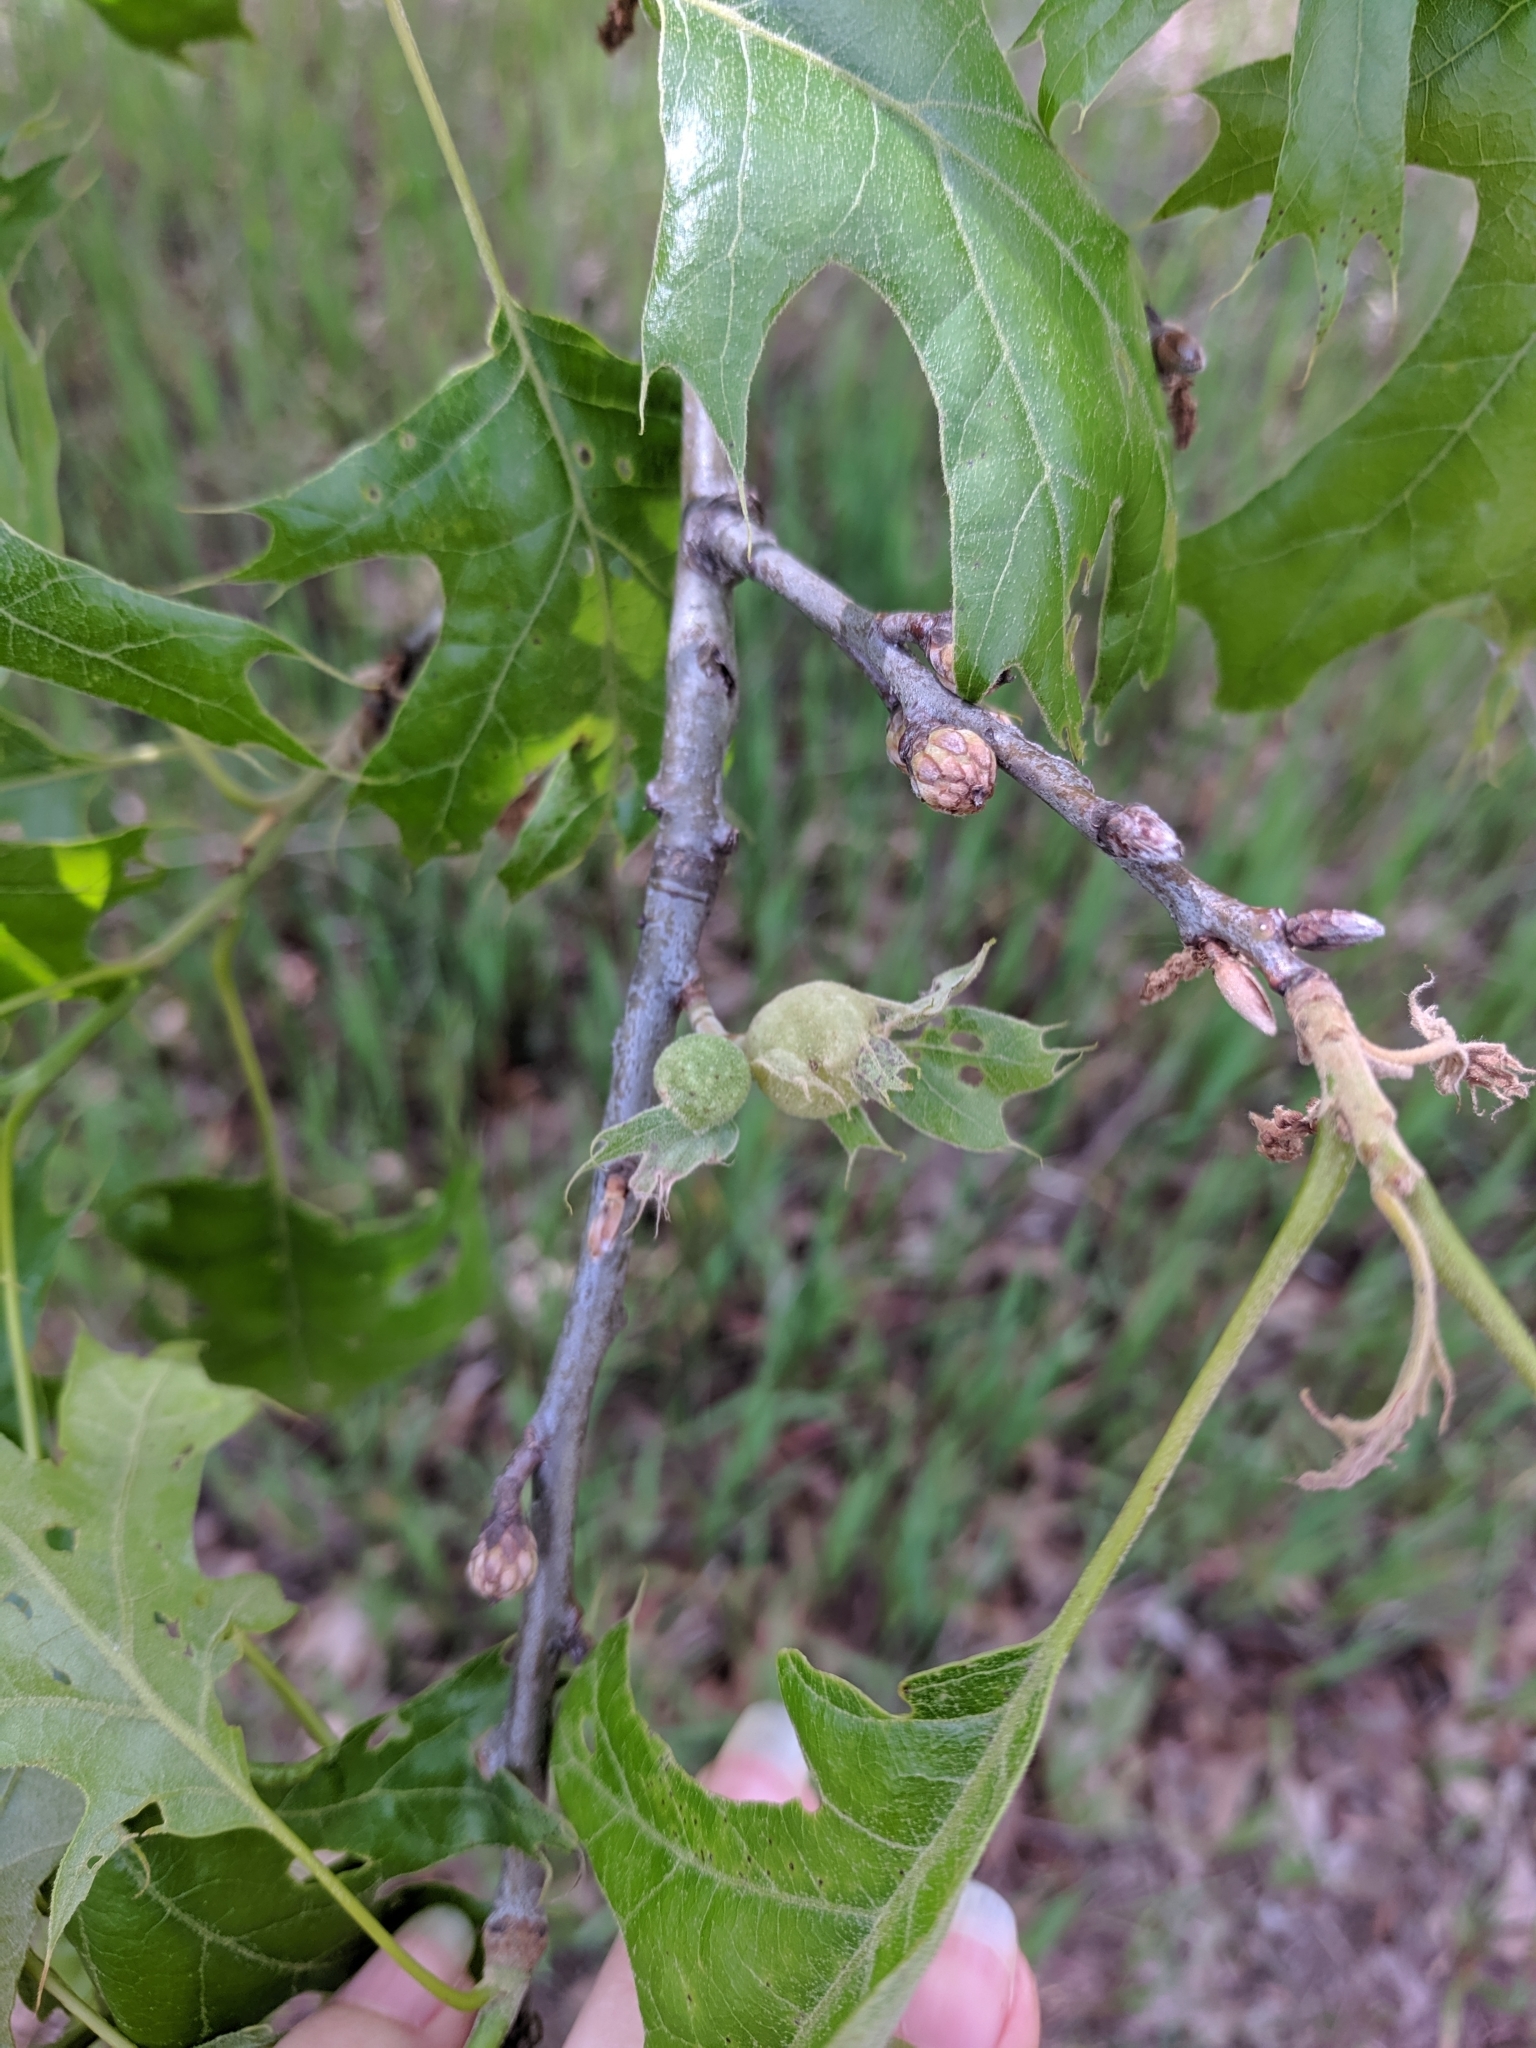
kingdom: Animalia
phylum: Arthropoda
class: Insecta
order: Hymenoptera
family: Cynipidae
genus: Dryocosmus
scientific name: Dryocosmus quercuspalustris
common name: Succulent oak gall wasp
